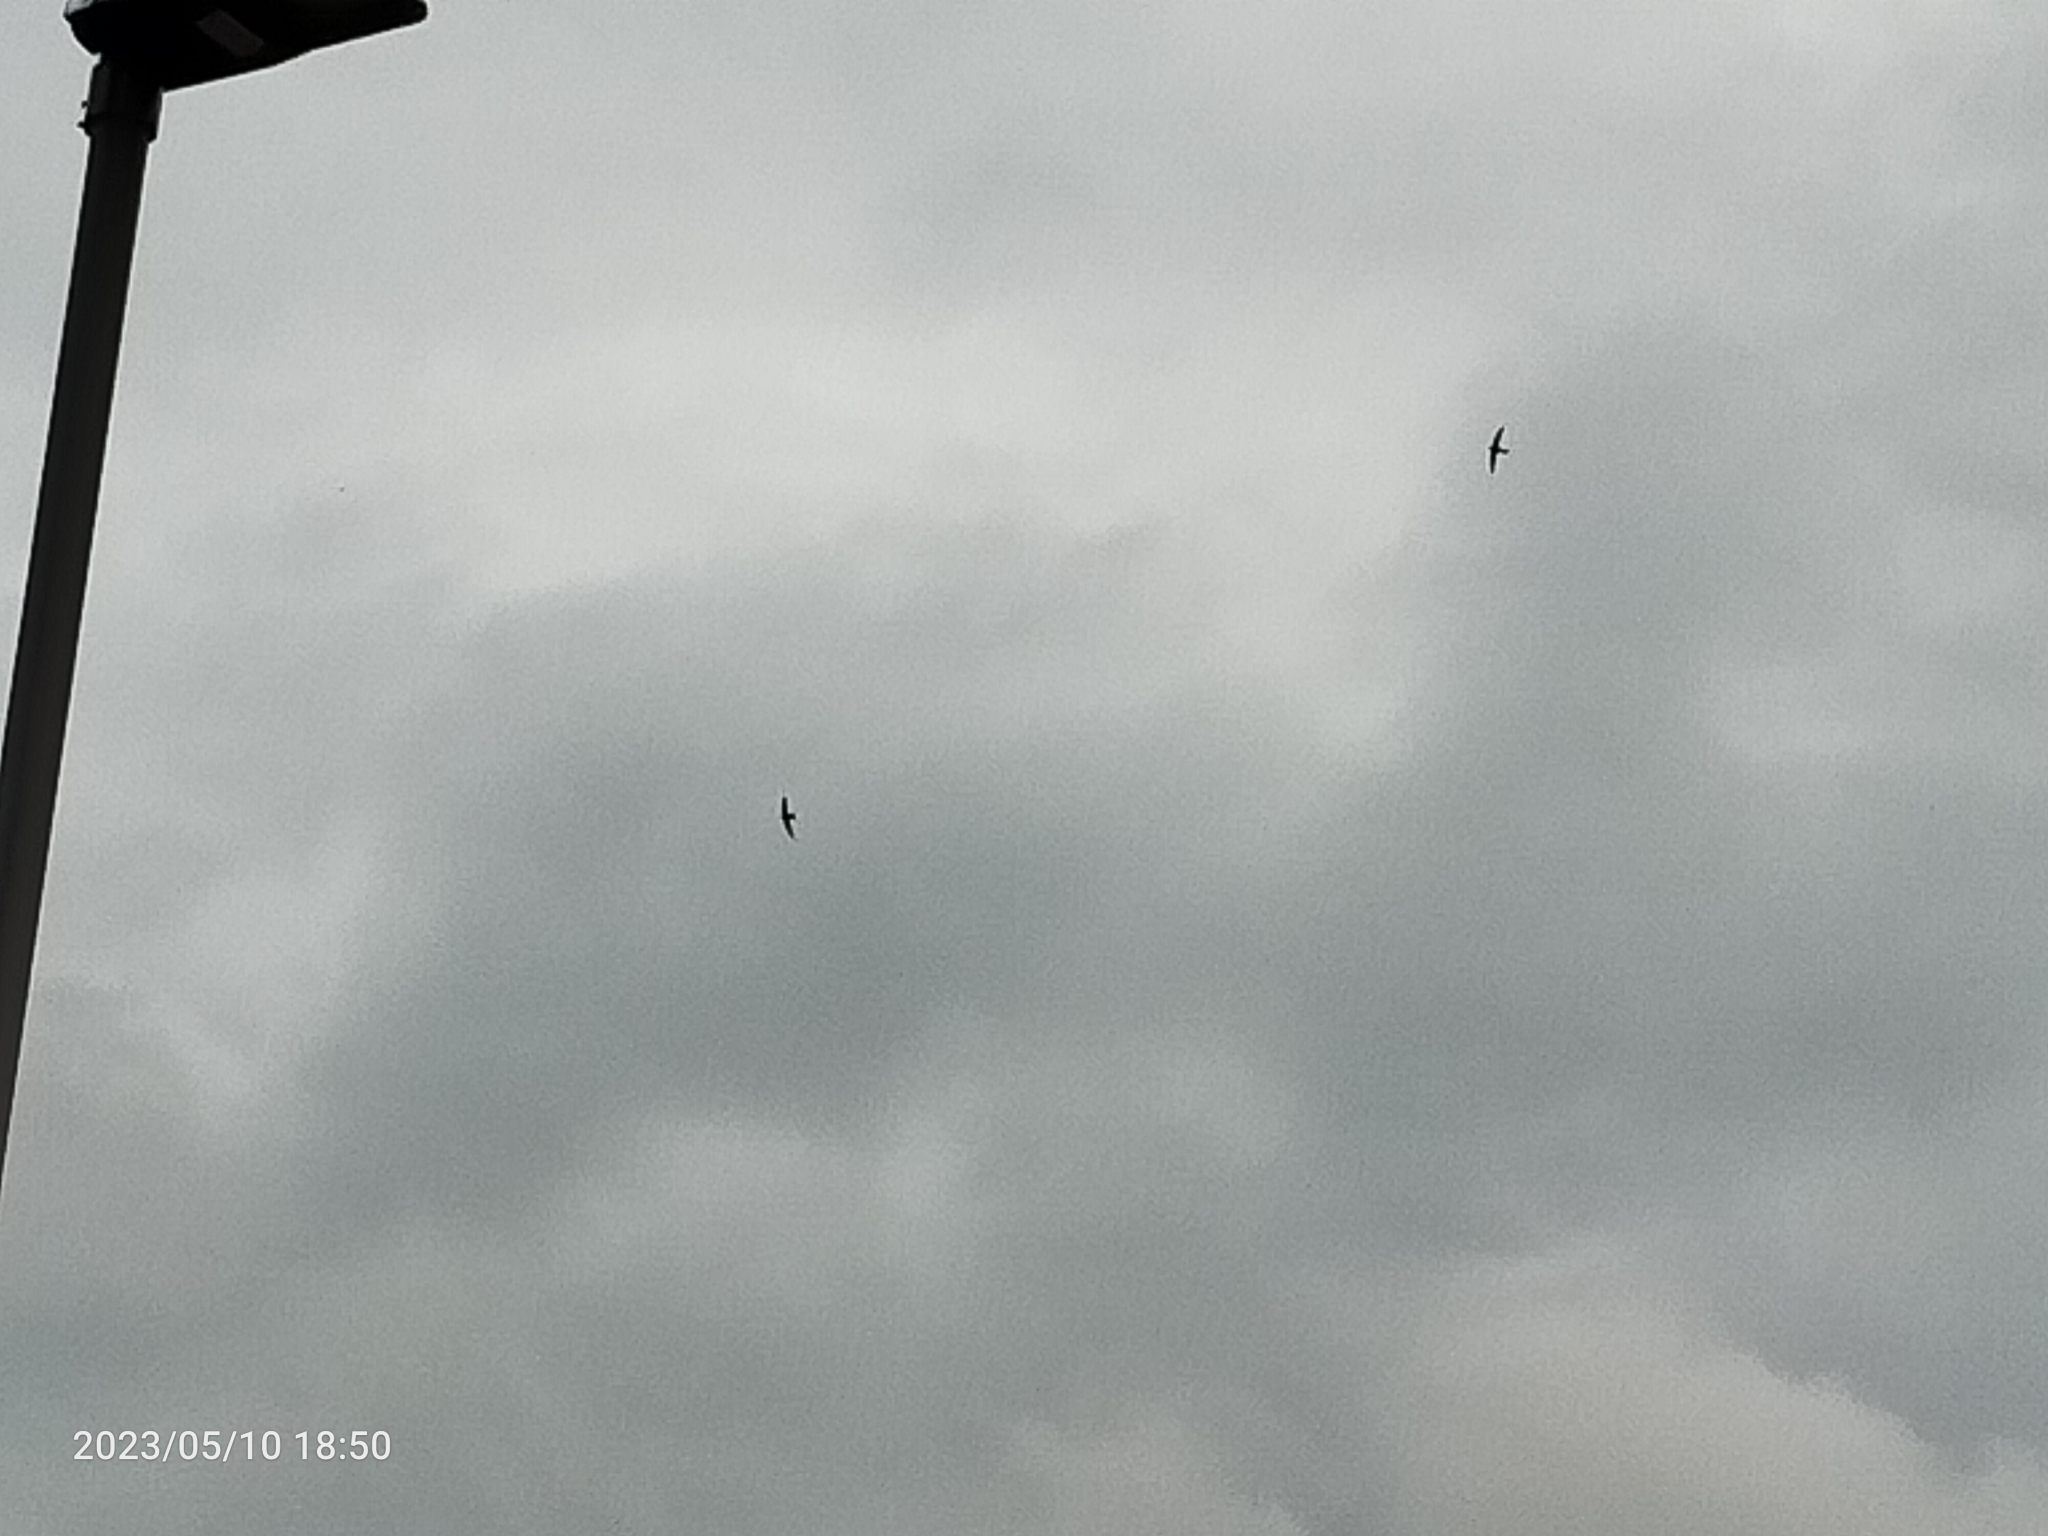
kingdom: Animalia
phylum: Chordata
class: Aves
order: Apodiformes
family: Apodidae
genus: Apus
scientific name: Apus apus
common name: Common swift
